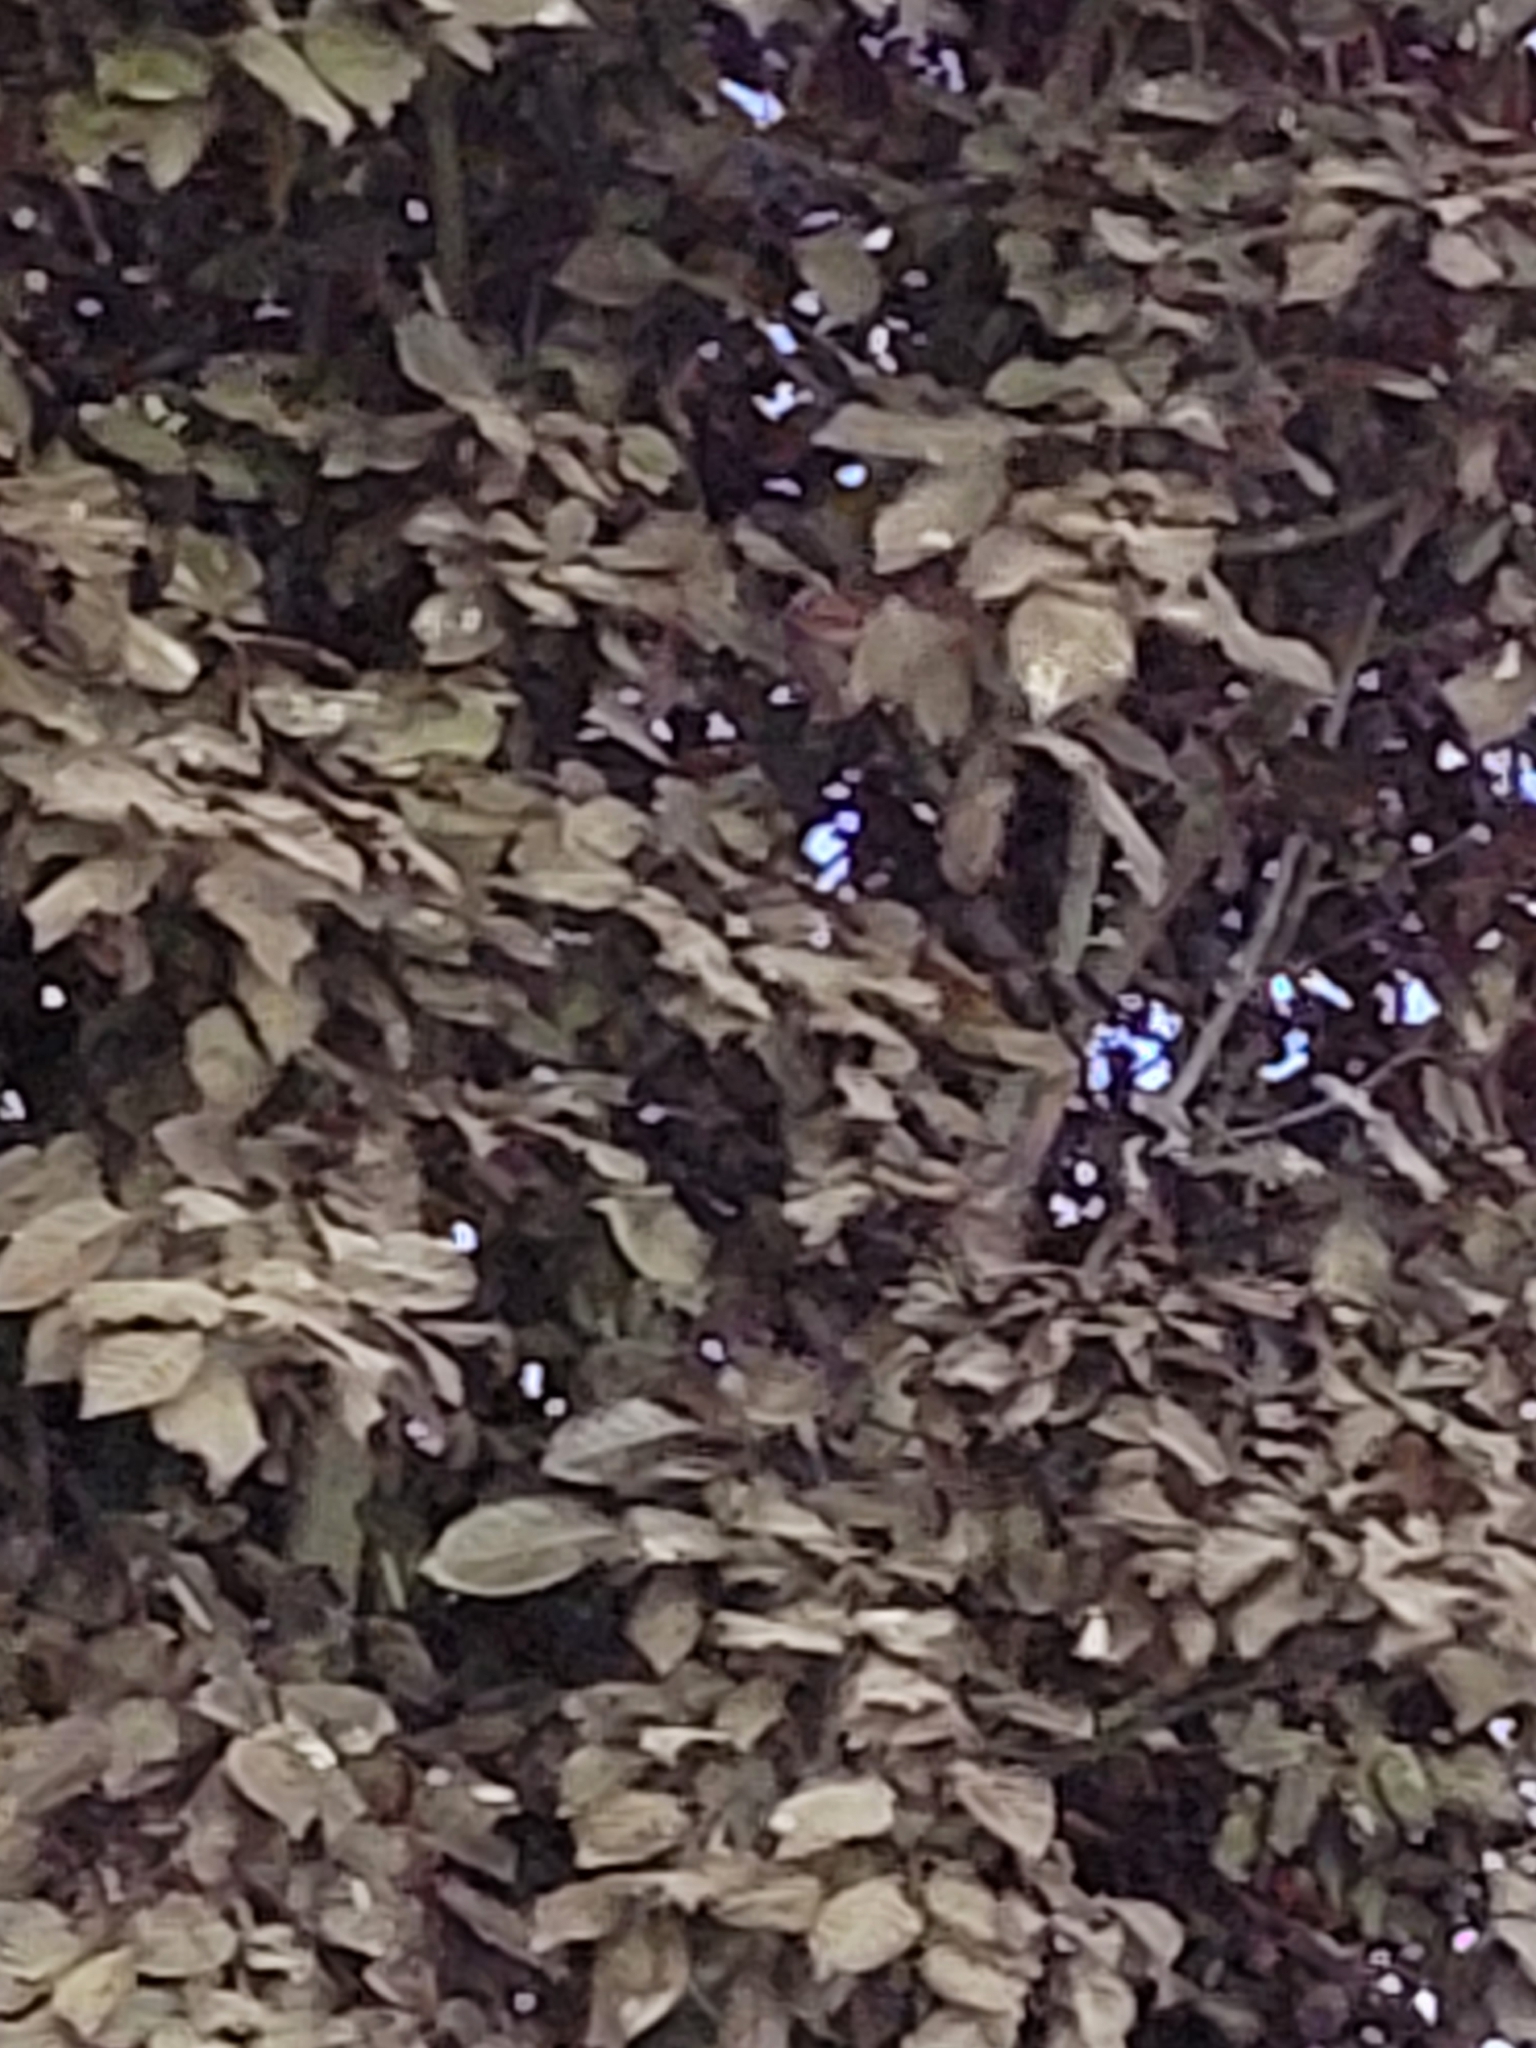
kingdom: Animalia
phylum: Chordata
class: Aves
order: Passeriformes
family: Passeridae
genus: Passer
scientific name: Passer domesticus
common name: House sparrow
